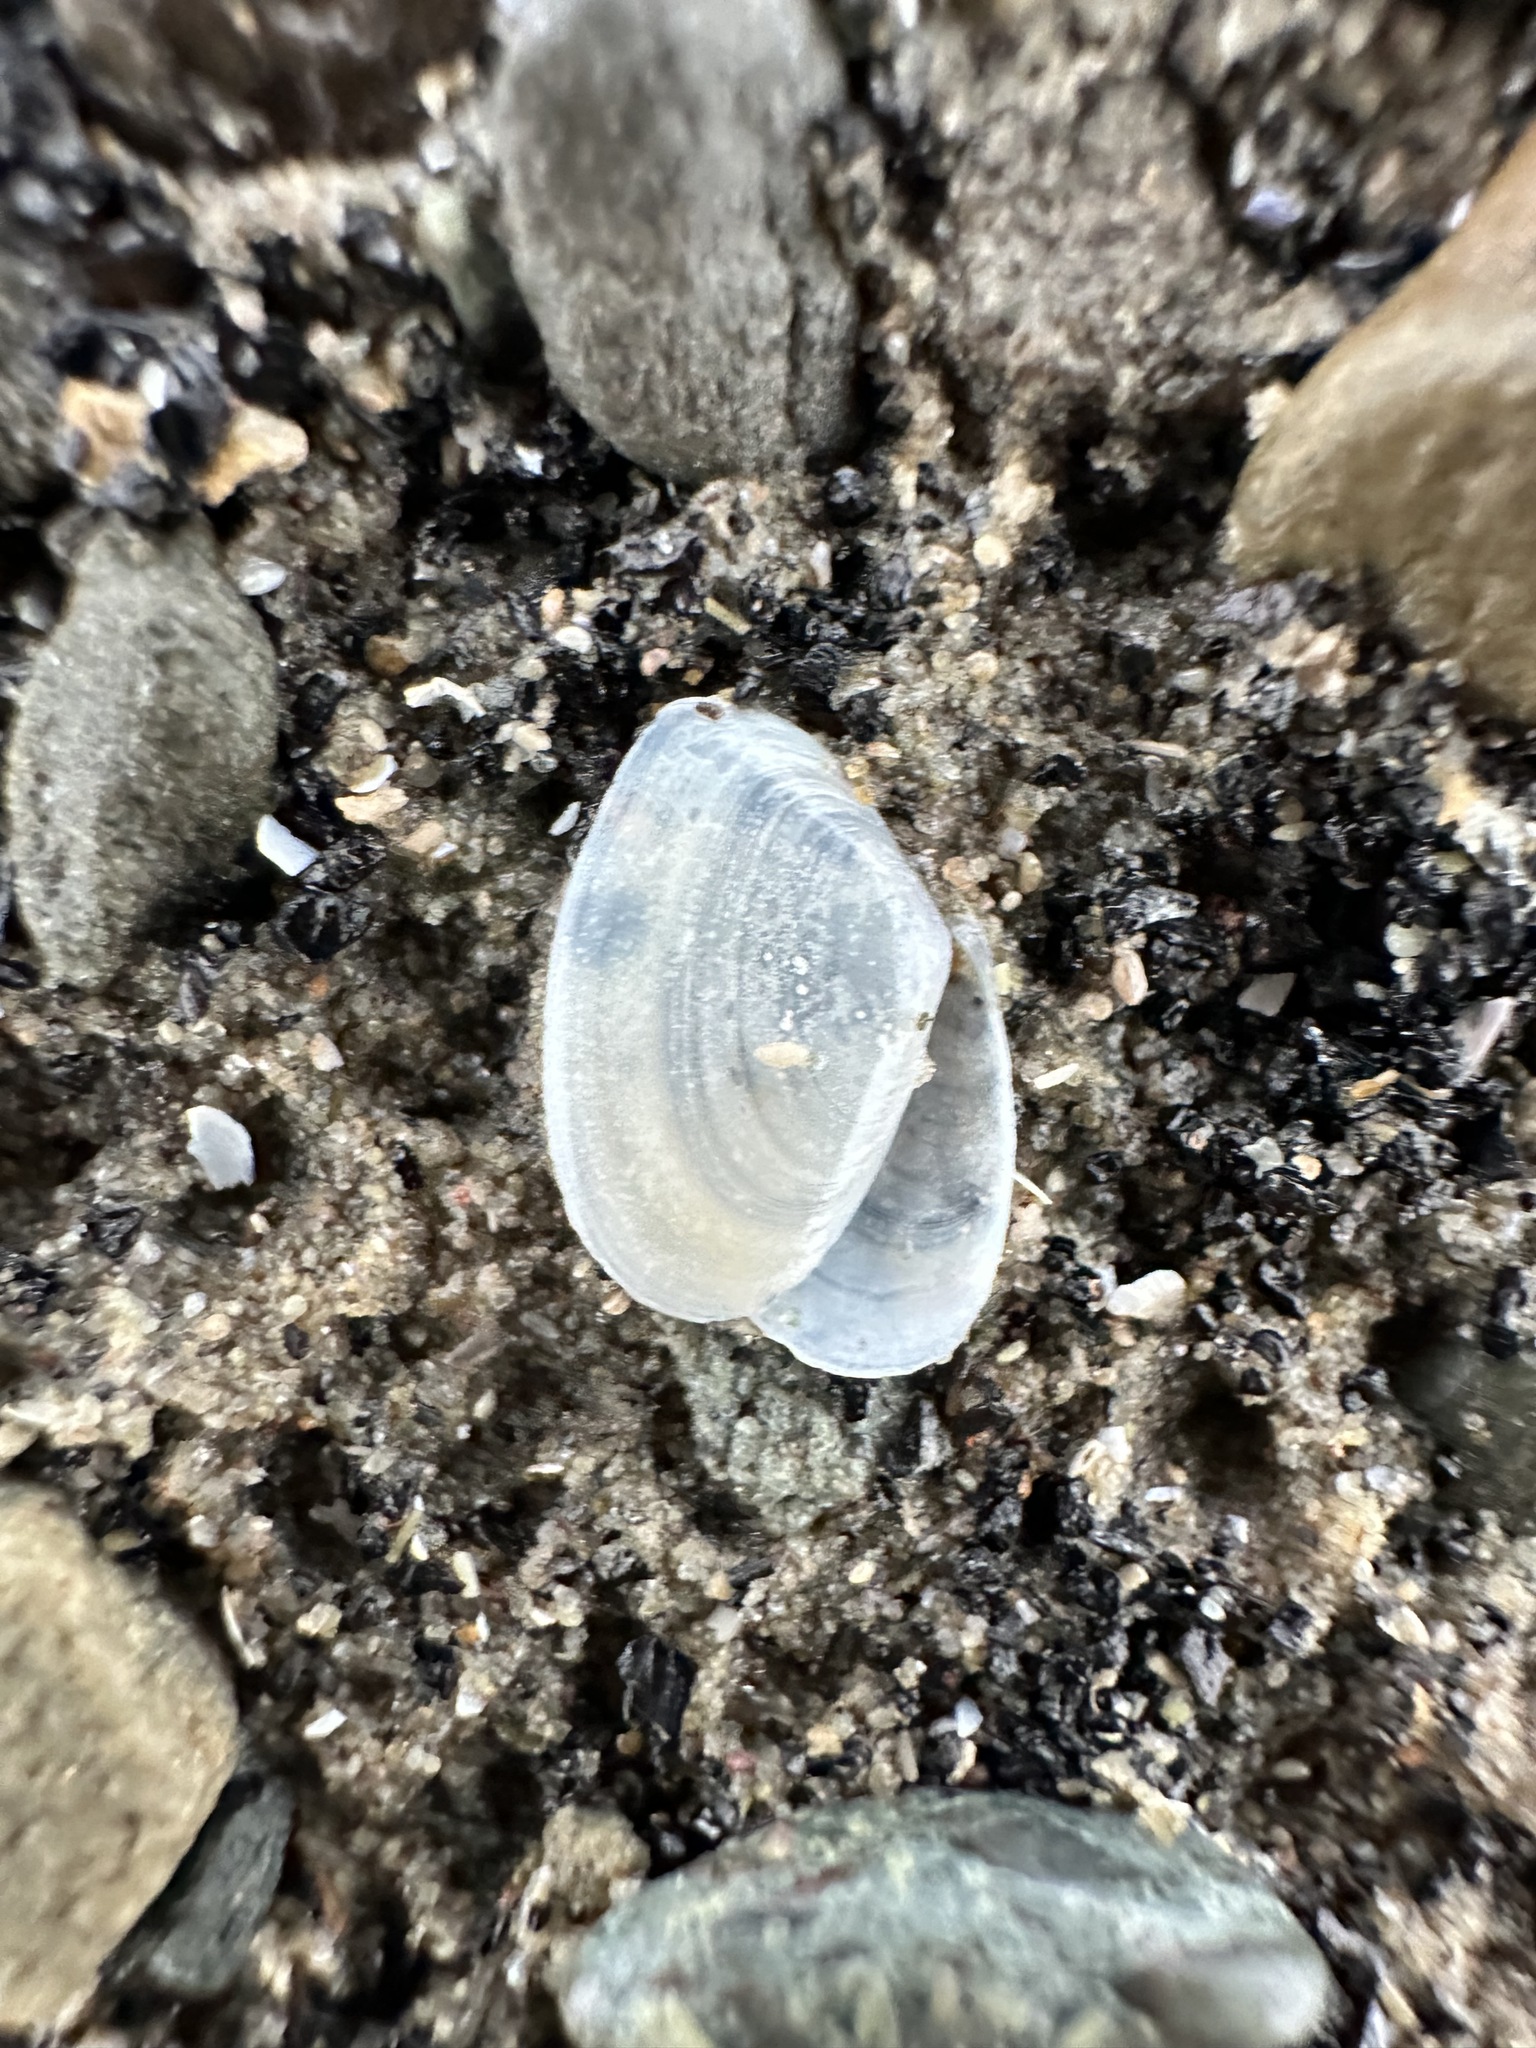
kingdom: Animalia
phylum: Mollusca
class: Bivalvia
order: Cardiida
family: Tellinidae
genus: Ameritella
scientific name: Ameritella agilis
